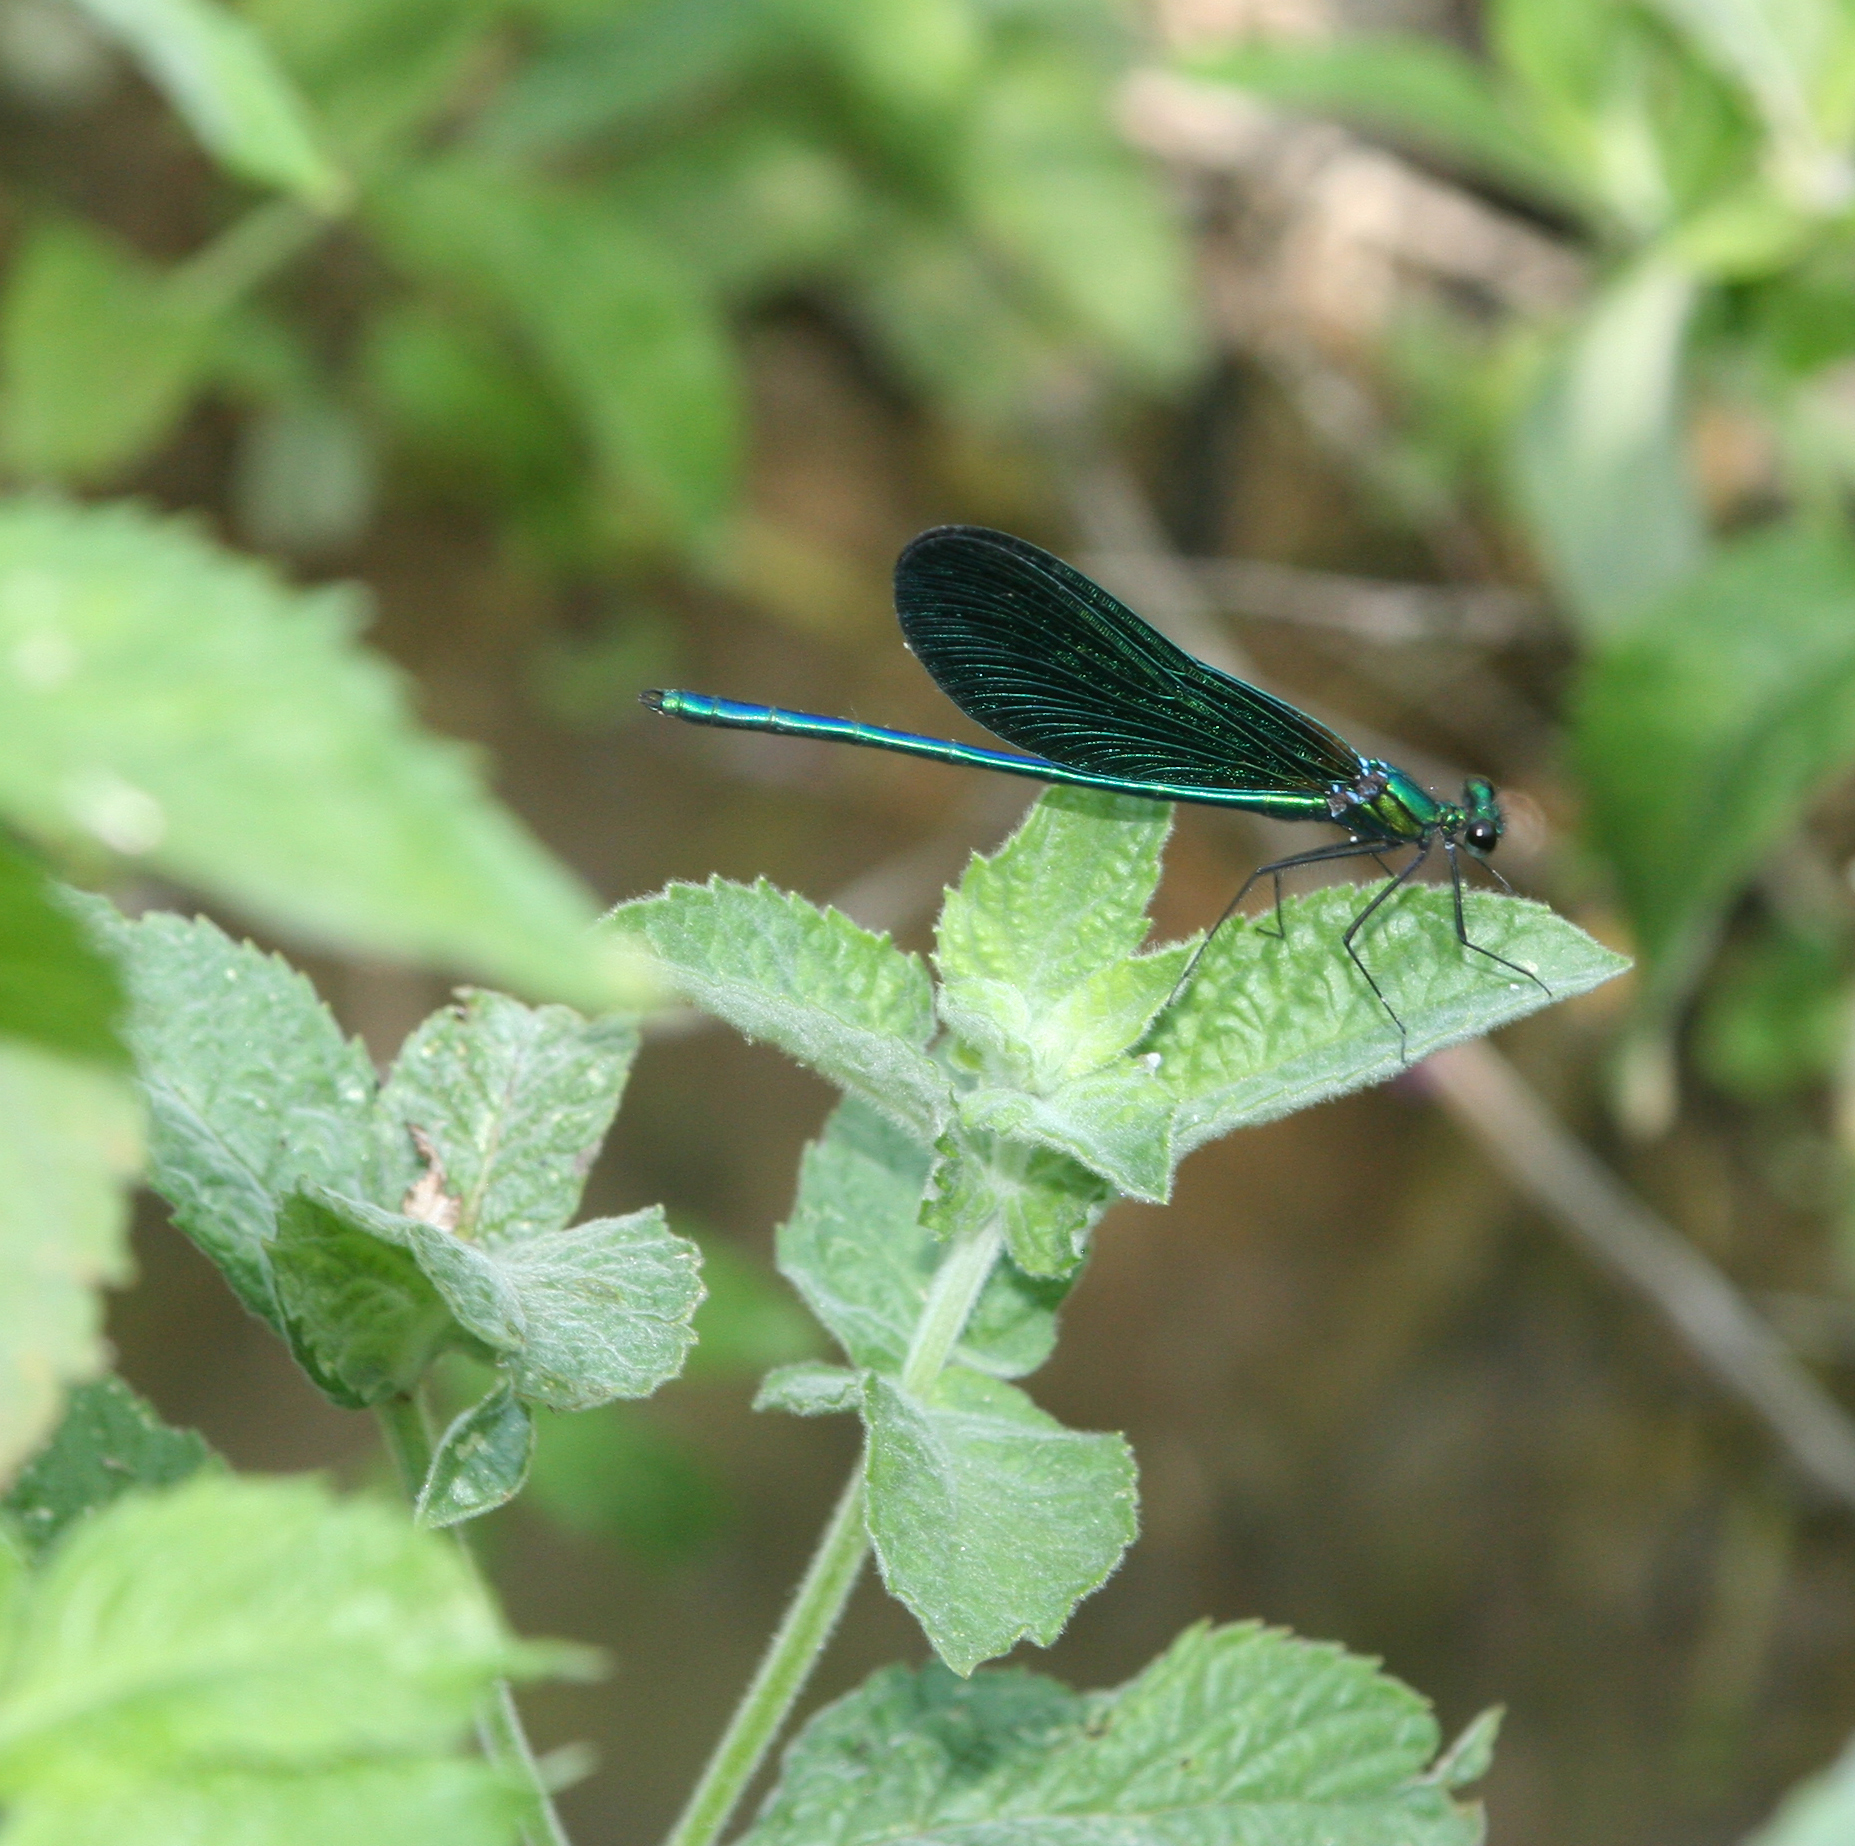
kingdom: Animalia
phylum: Arthropoda
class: Insecta
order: Odonata
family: Calopterygidae
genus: Calopteryx
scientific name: Calopteryx virgo
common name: Beautiful demoiselle
